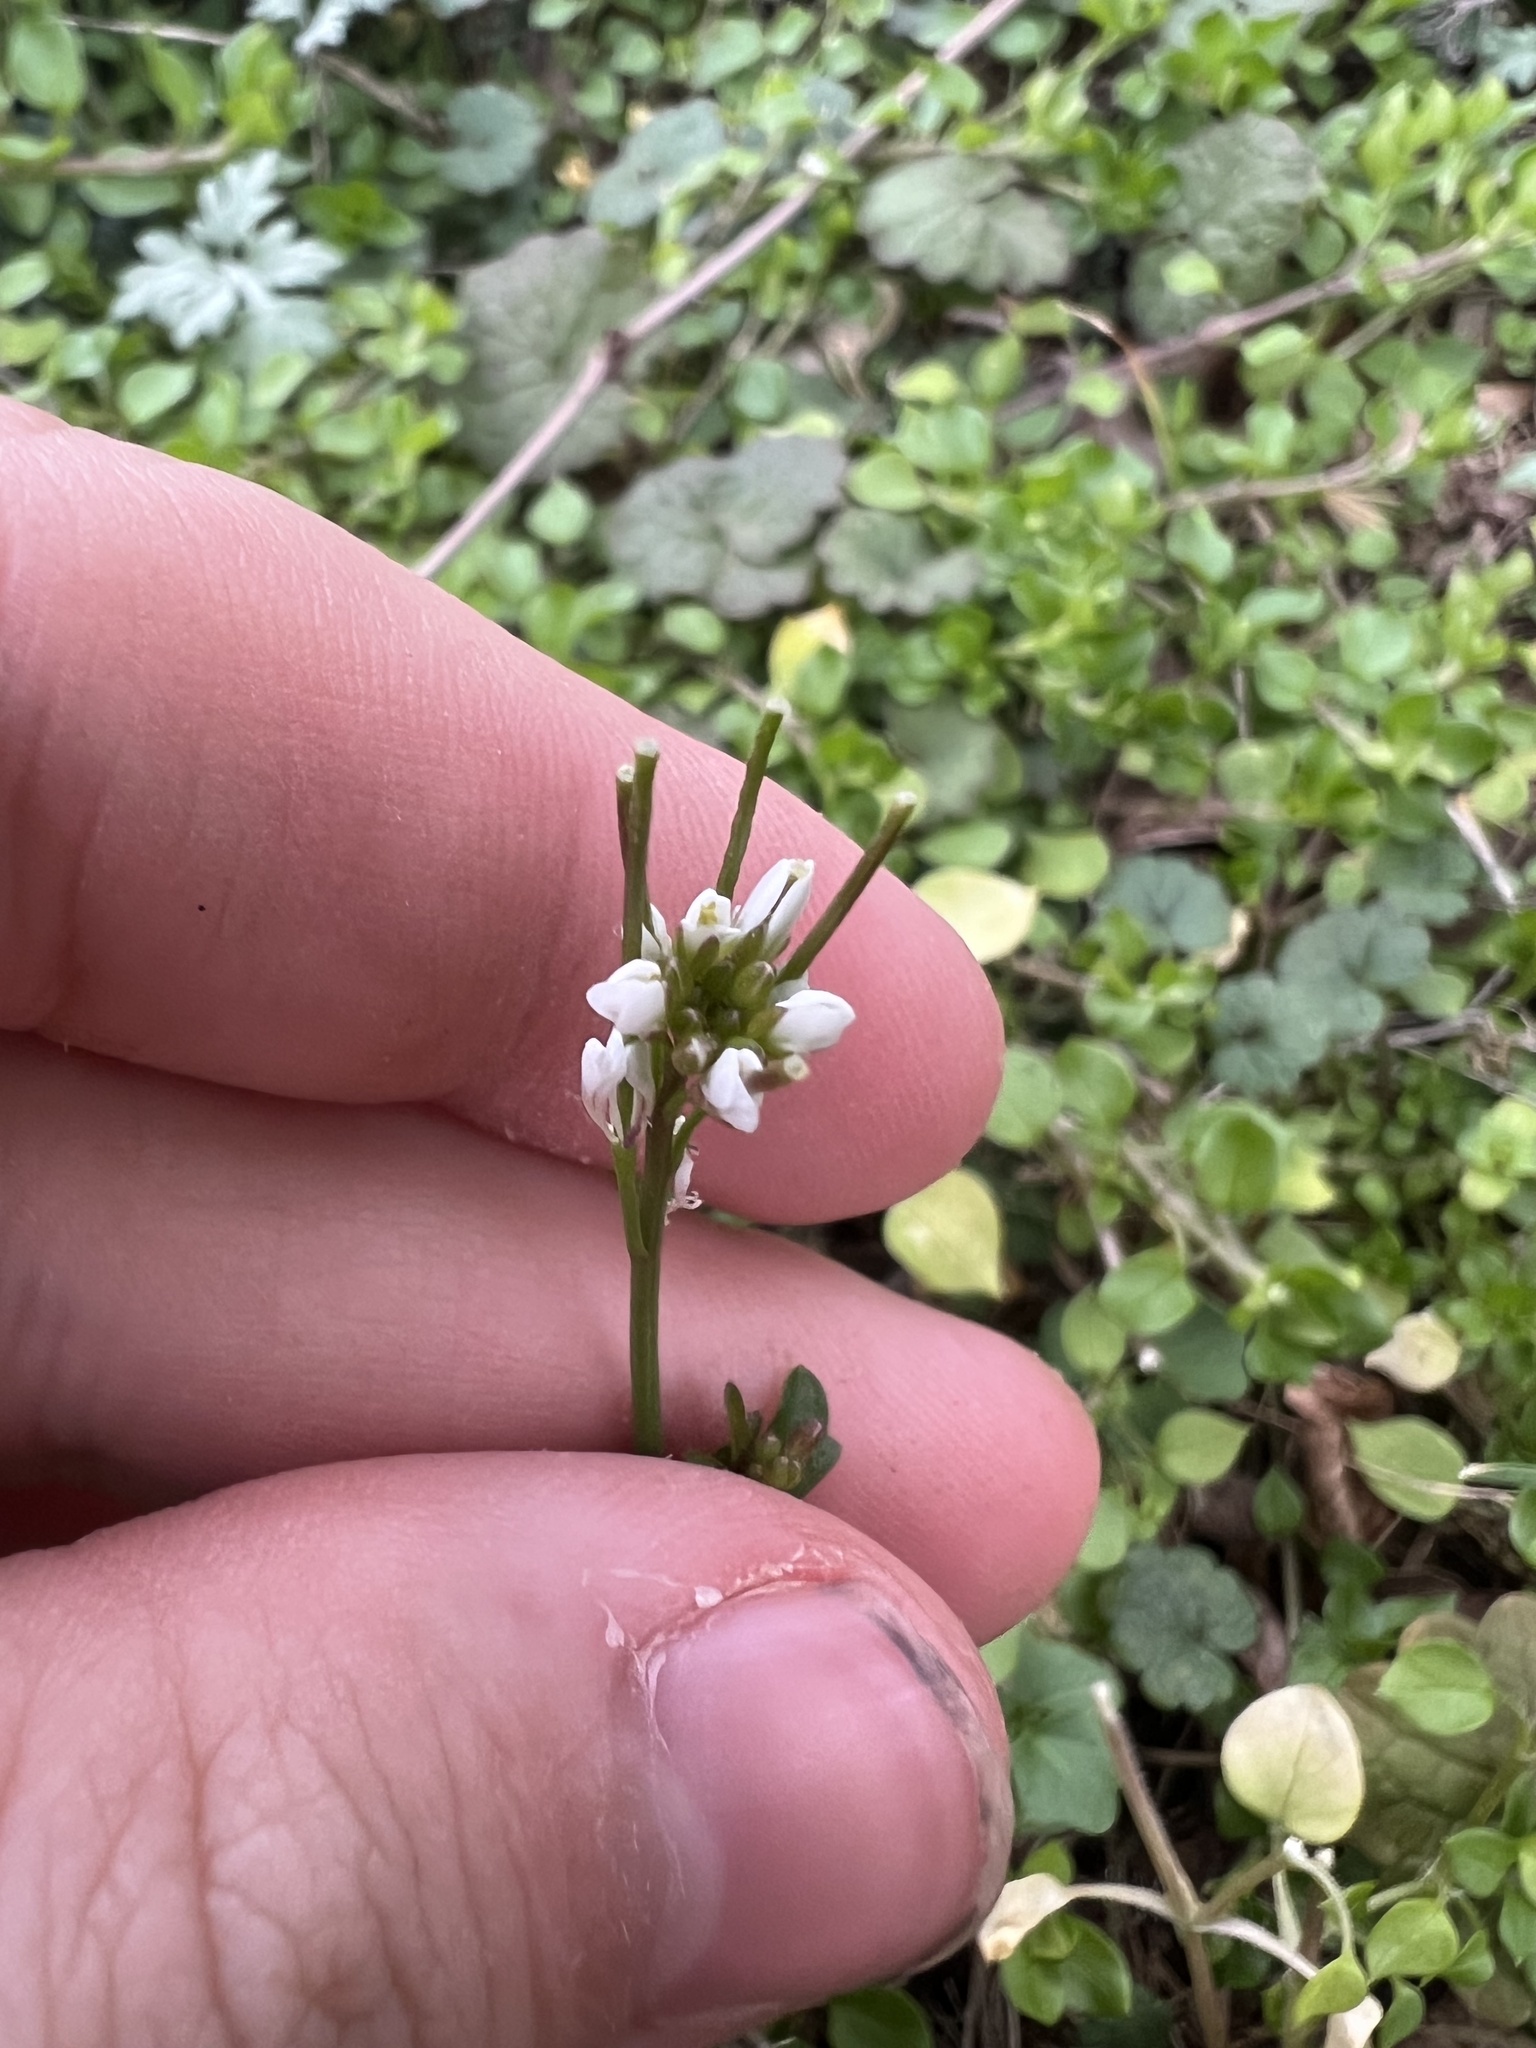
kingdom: Plantae
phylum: Tracheophyta
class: Magnoliopsida
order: Brassicales
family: Brassicaceae
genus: Cardamine
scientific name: Cardamine hirsuta
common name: Hairy bittercress
